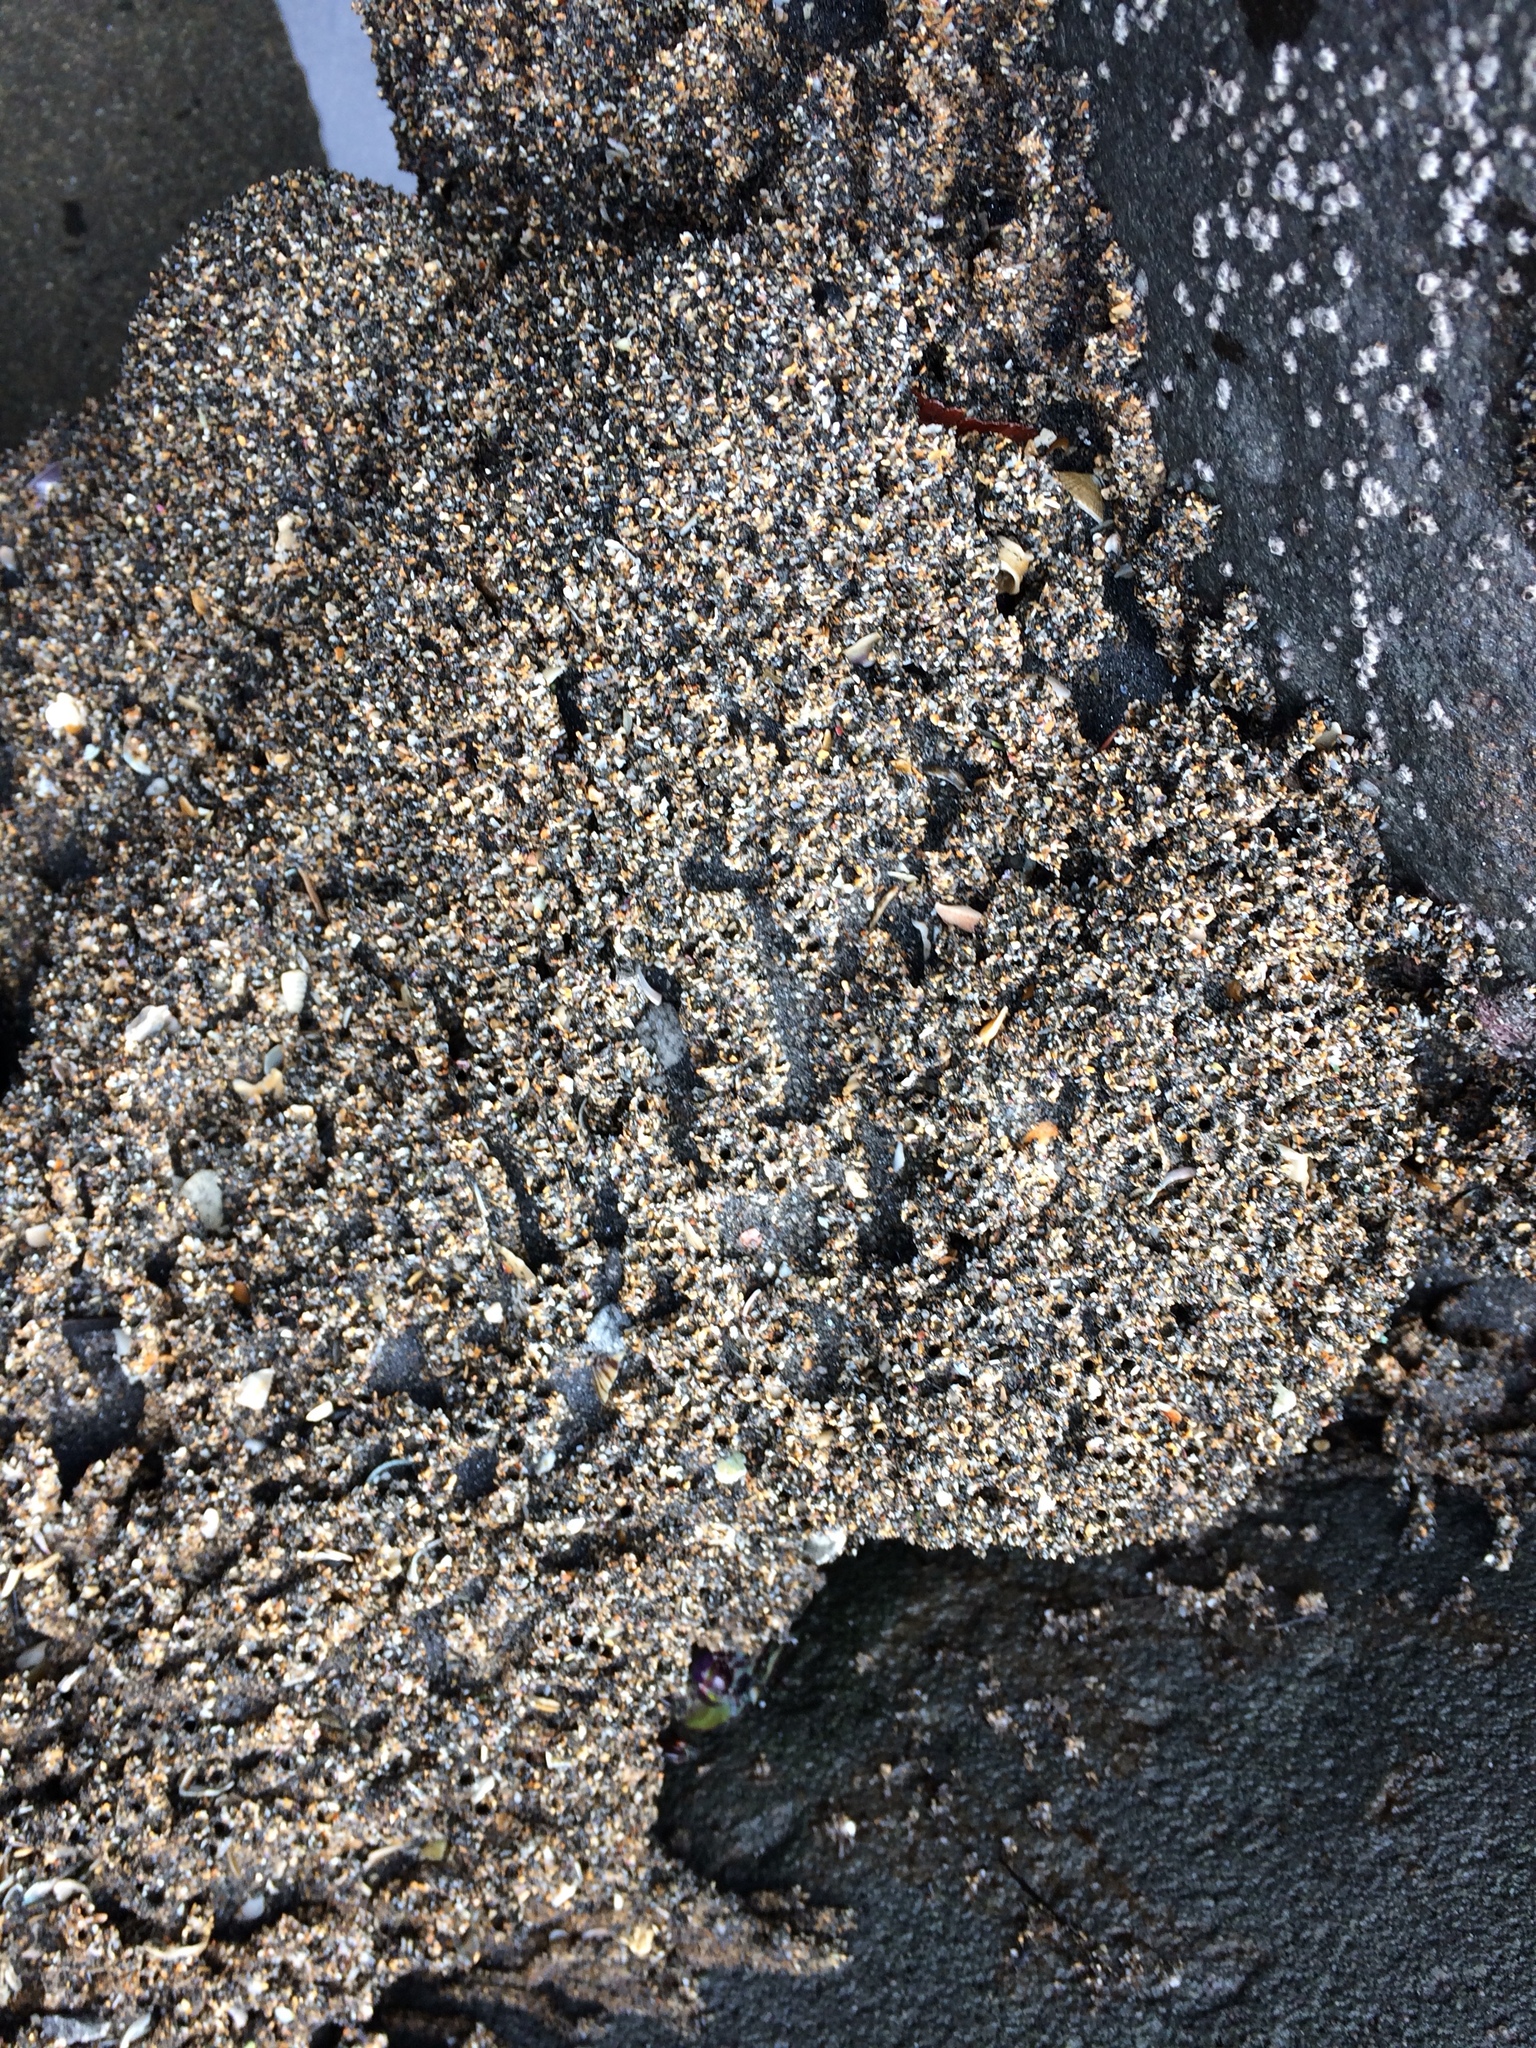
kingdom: Animalia
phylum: Annelida
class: Polychaeta
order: Sabellida
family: Sabellariidae
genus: Neosabellaria
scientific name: Neosabellaria kaiparaensis
